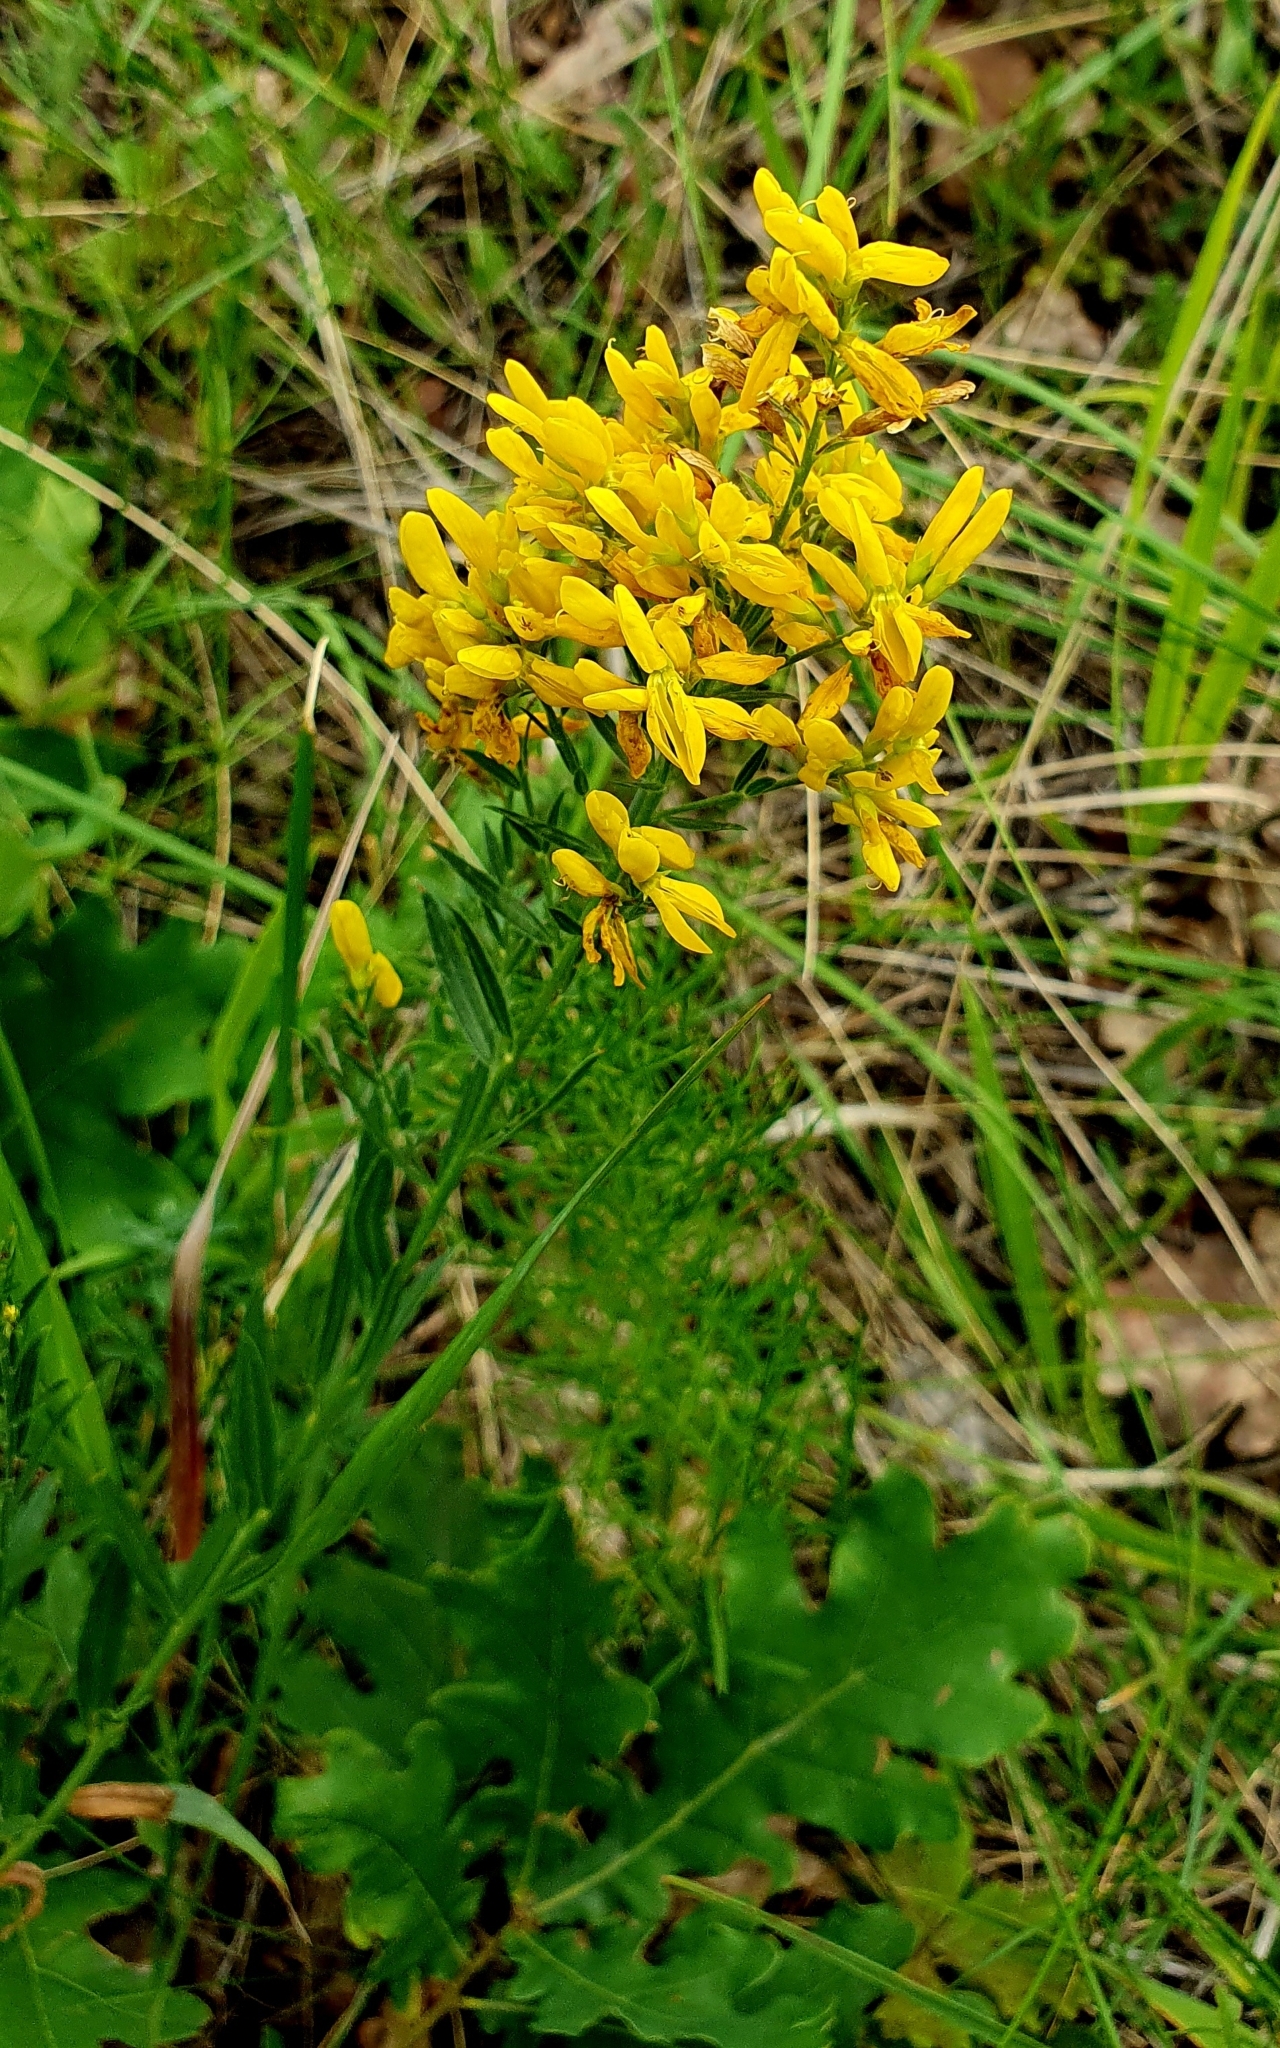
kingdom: Plantae
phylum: Tracheophyta
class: Magnoliopsida
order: Fabales
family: Fabaceae
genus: Genista
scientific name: Genista tinctoria
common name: Dyer's greenweed
